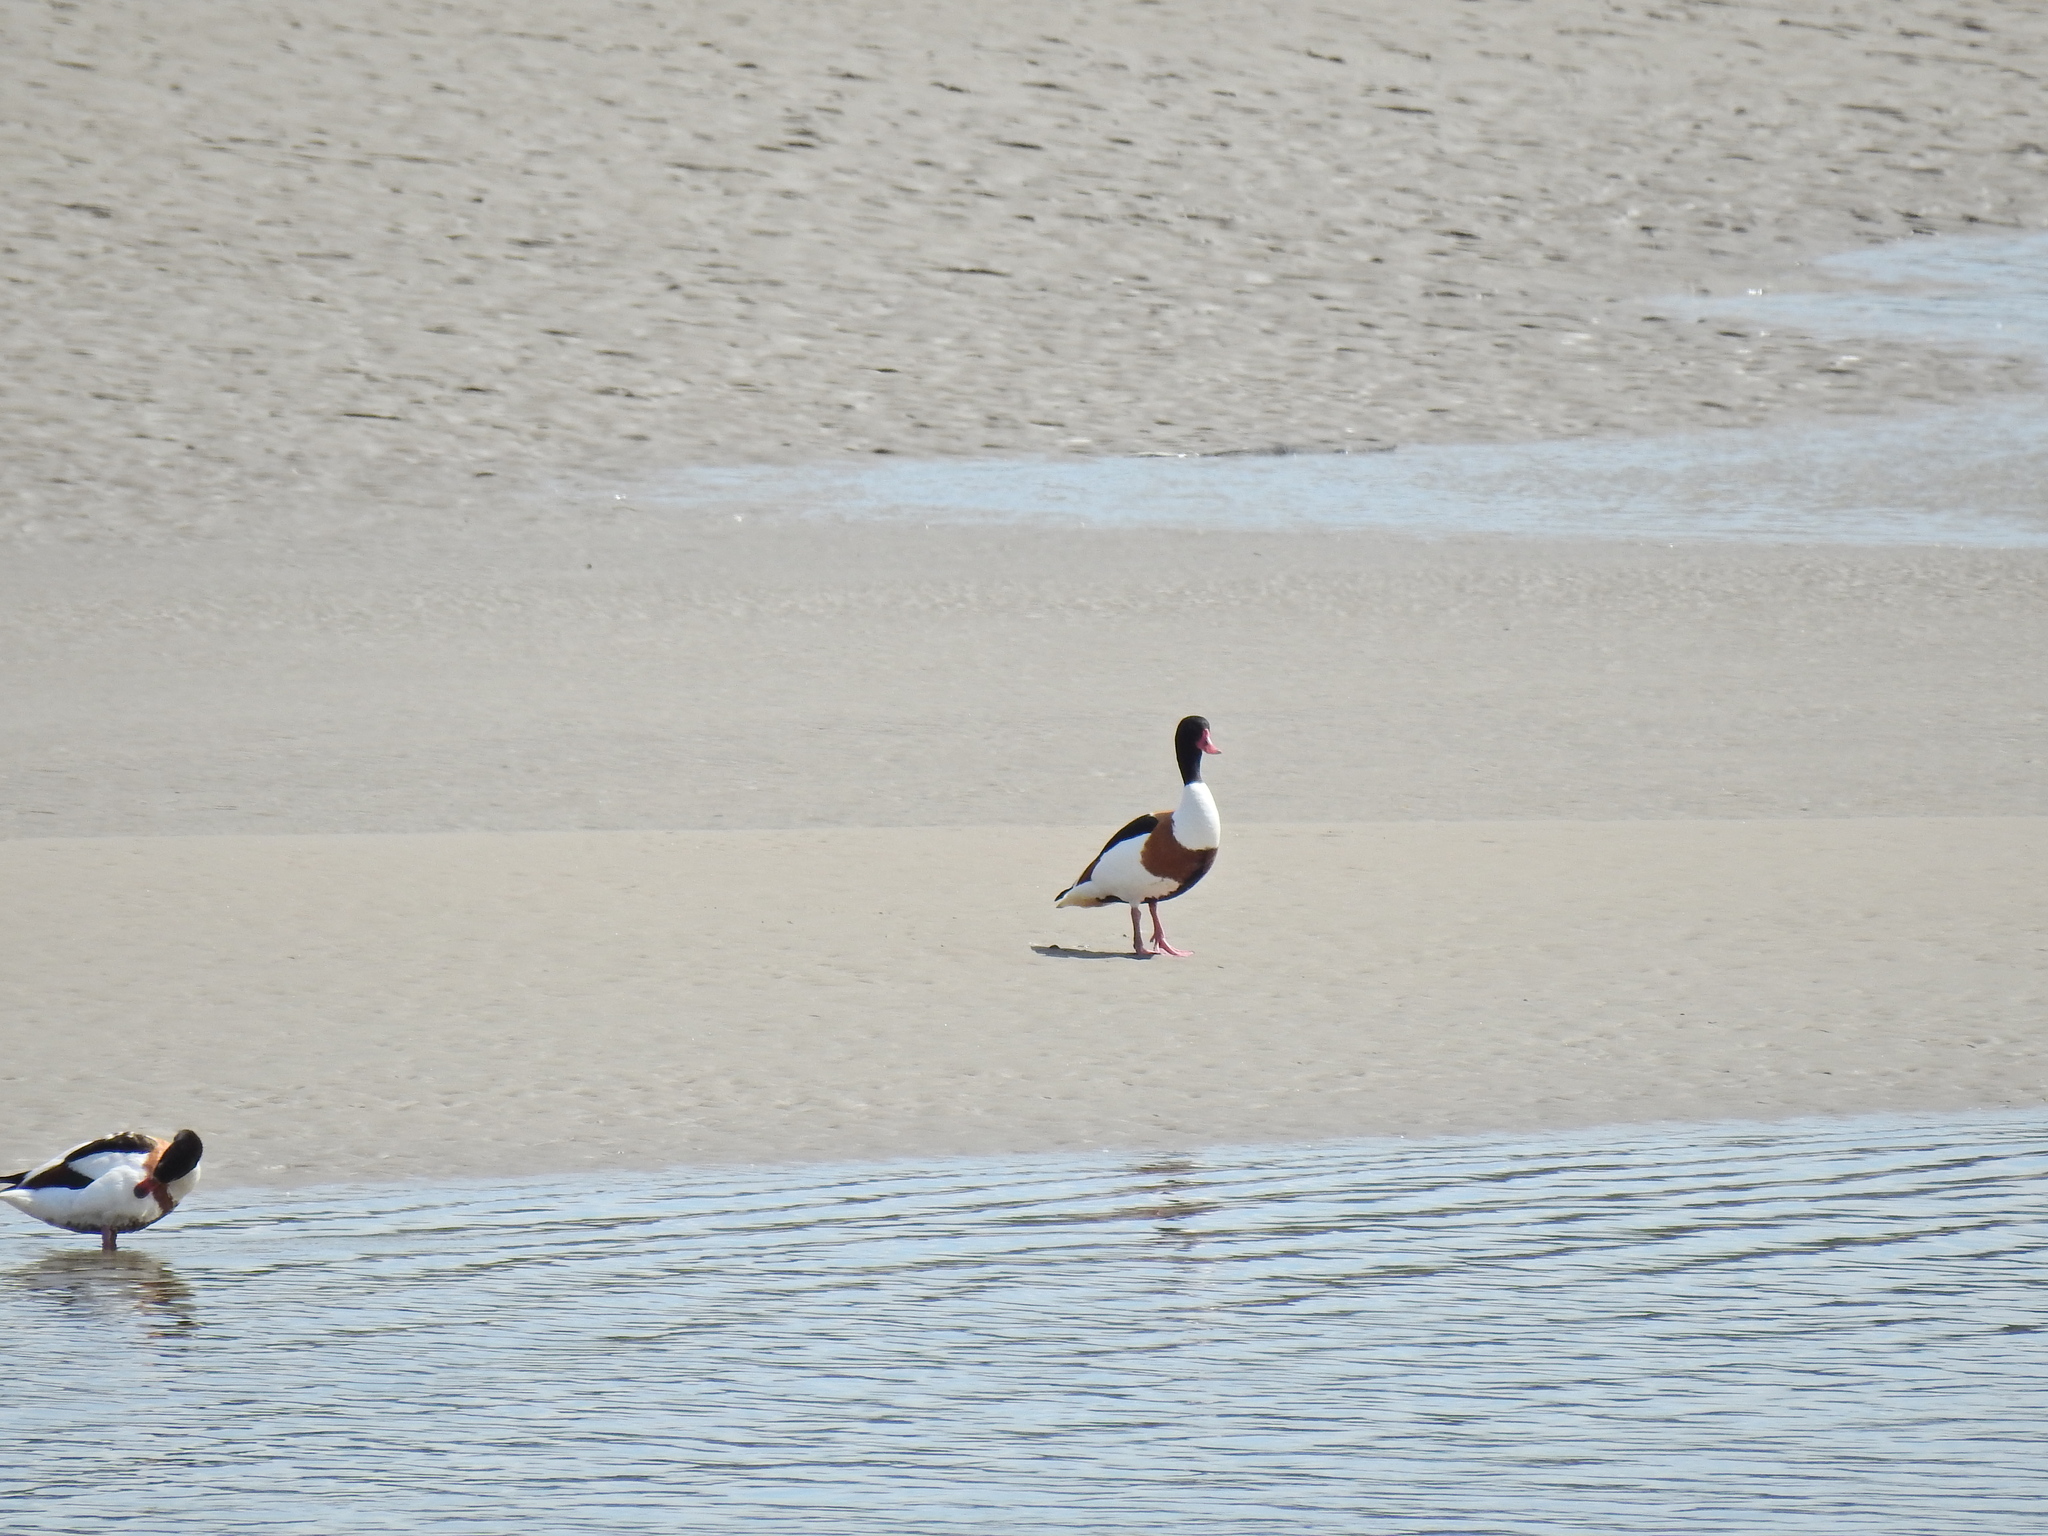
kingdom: Animalia
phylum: Chordata
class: Aves
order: Anseriformes
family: Anatidae
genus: Tadorna
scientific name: Tadorna tadorna
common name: Common shelduck
